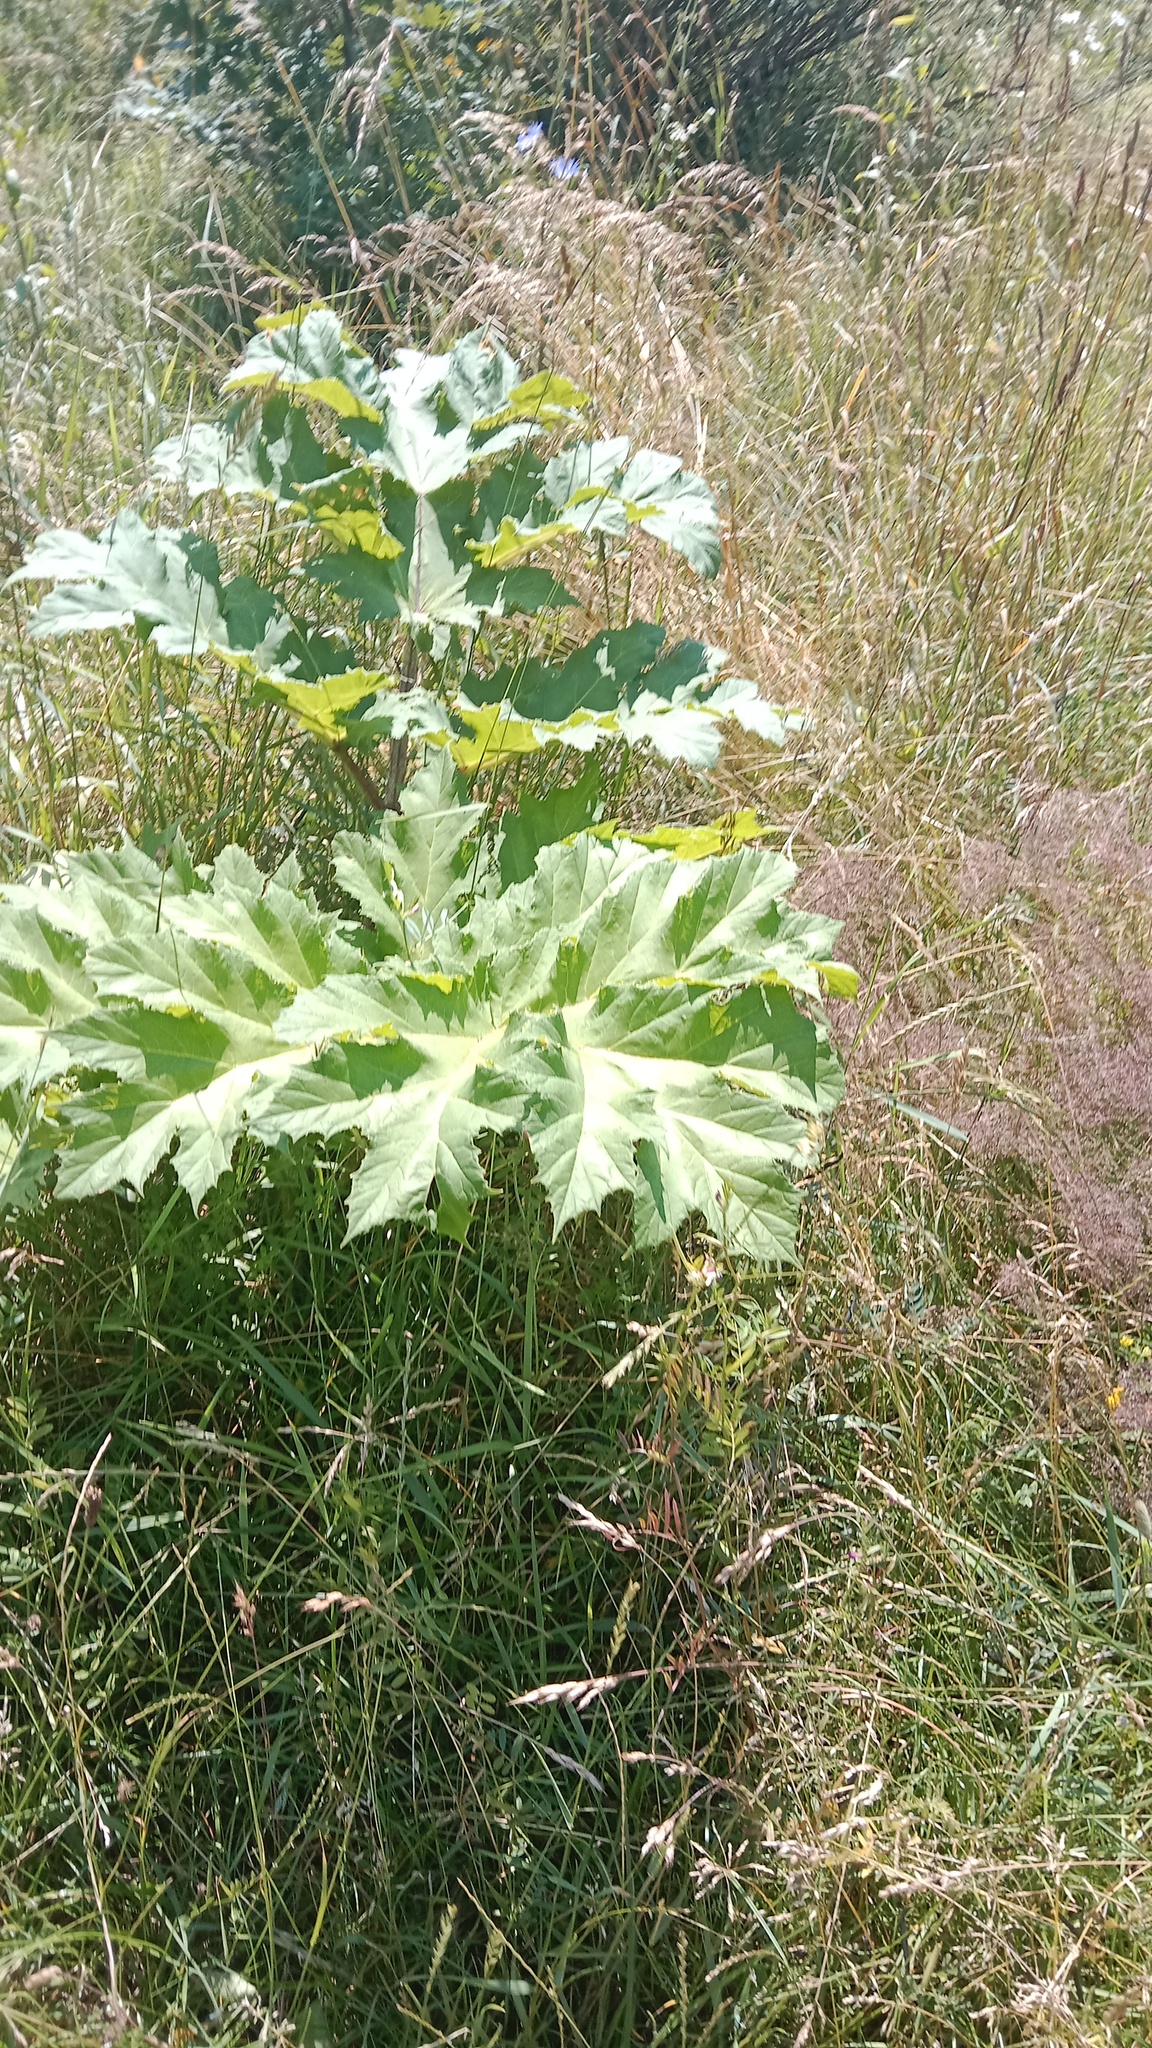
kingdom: Plantae
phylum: Tracheophyta
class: Magnoliopsida
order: Apiales
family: Apiaceae
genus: Heracleum
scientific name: Heracleum sosnowskyi
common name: Sosnowsky's hogweed
